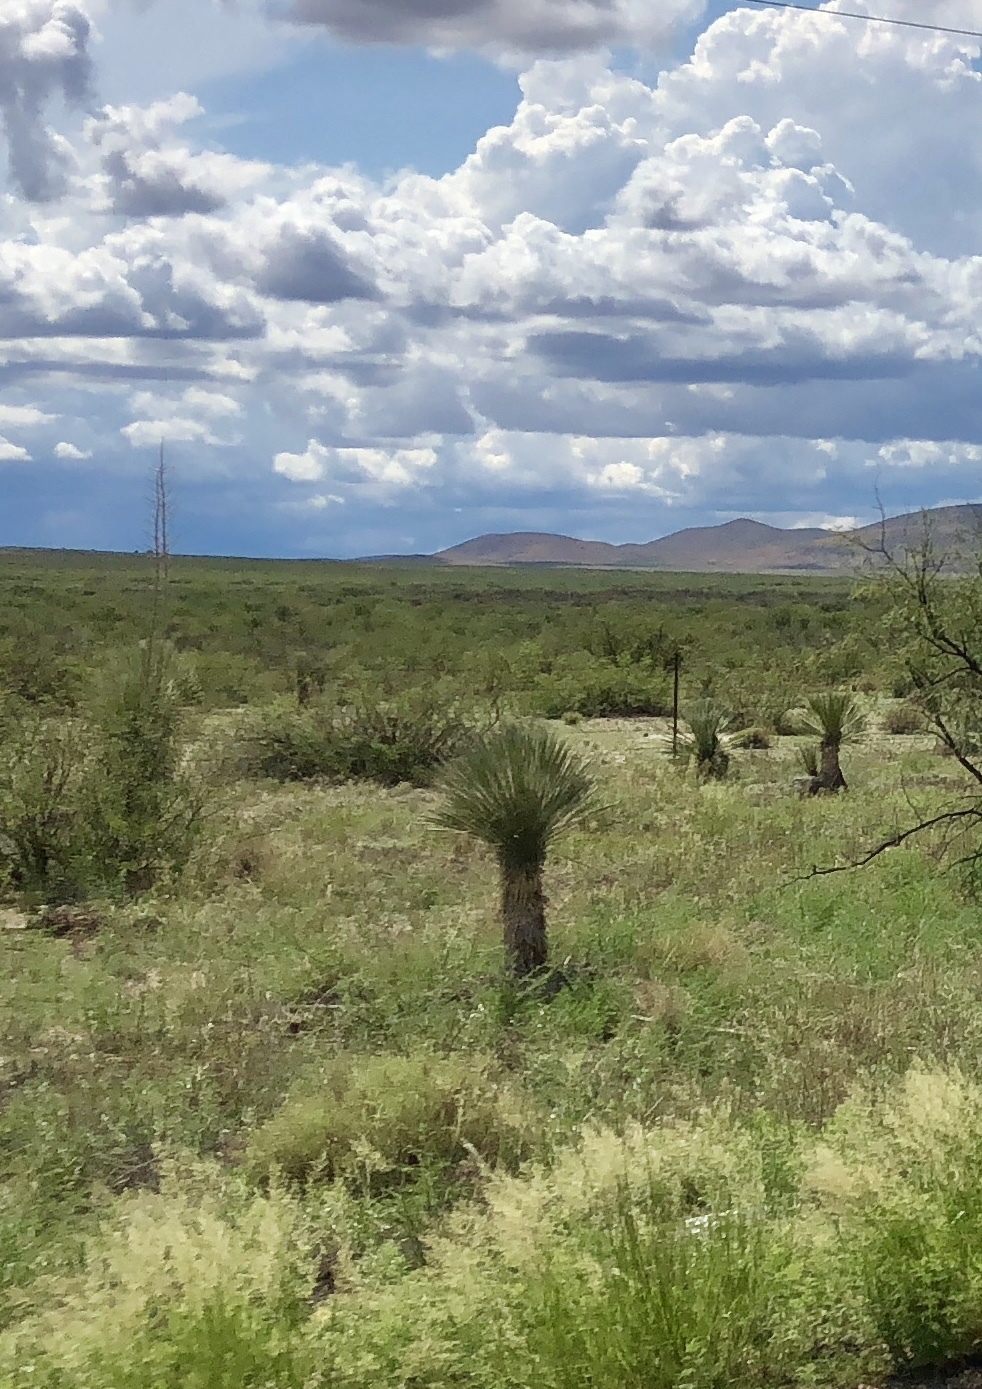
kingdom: Plantae
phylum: Tracheophyta
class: Liliopsida
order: Asparagales
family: Asparagaceae
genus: Yucca
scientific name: Yucca elata
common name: Palmella
